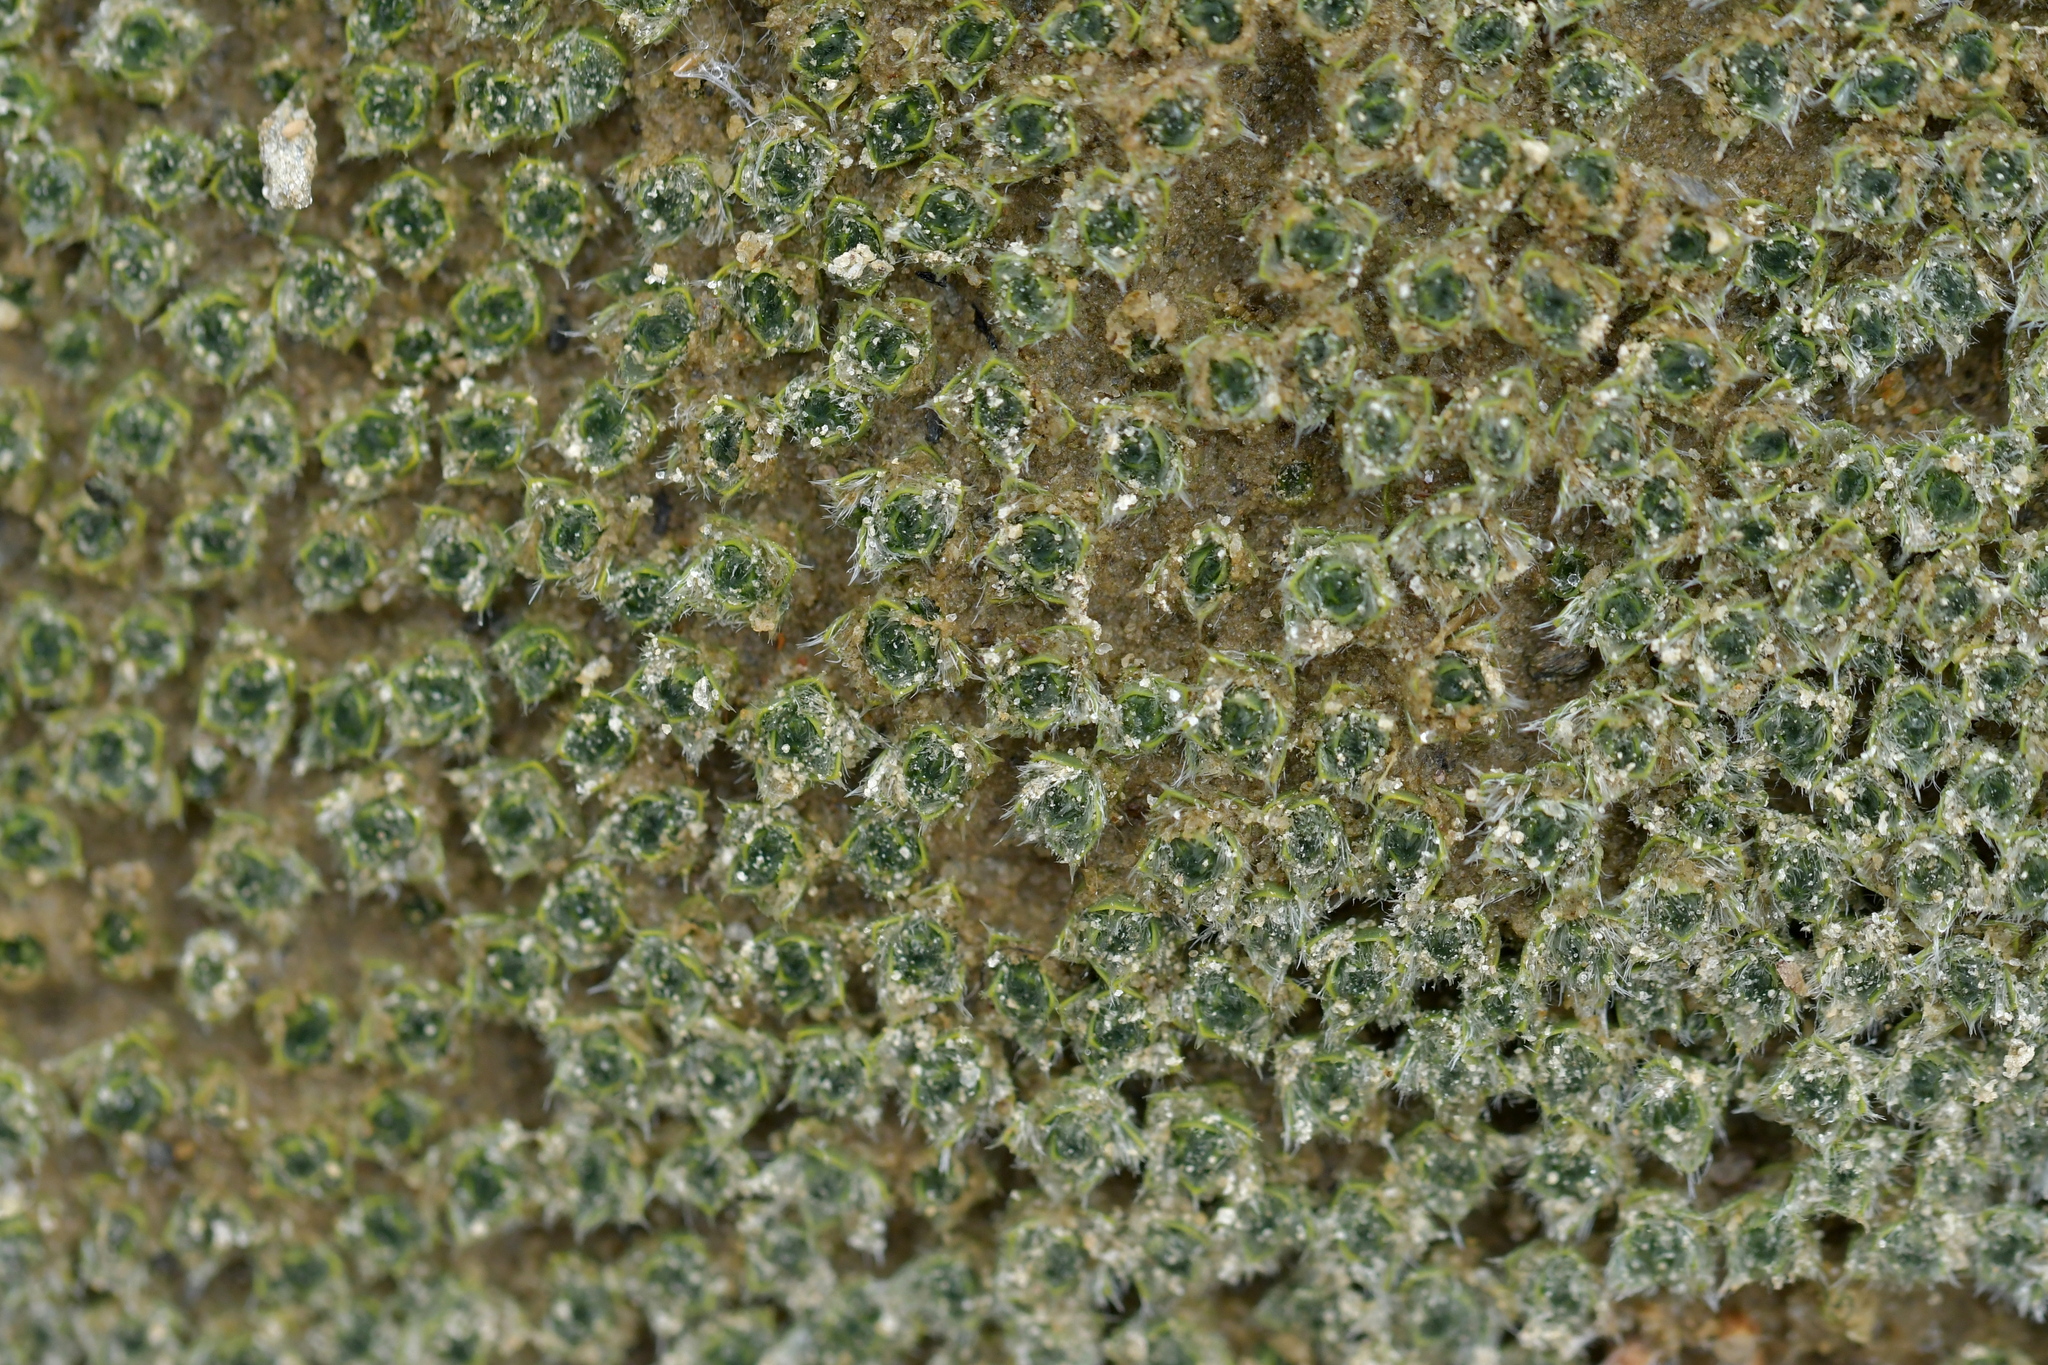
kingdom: Plantae
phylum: Tracheophyta
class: Magnoliopsida
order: Lamiales
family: Plantaginaceae
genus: Veronica
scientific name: Veronica thomsonii
